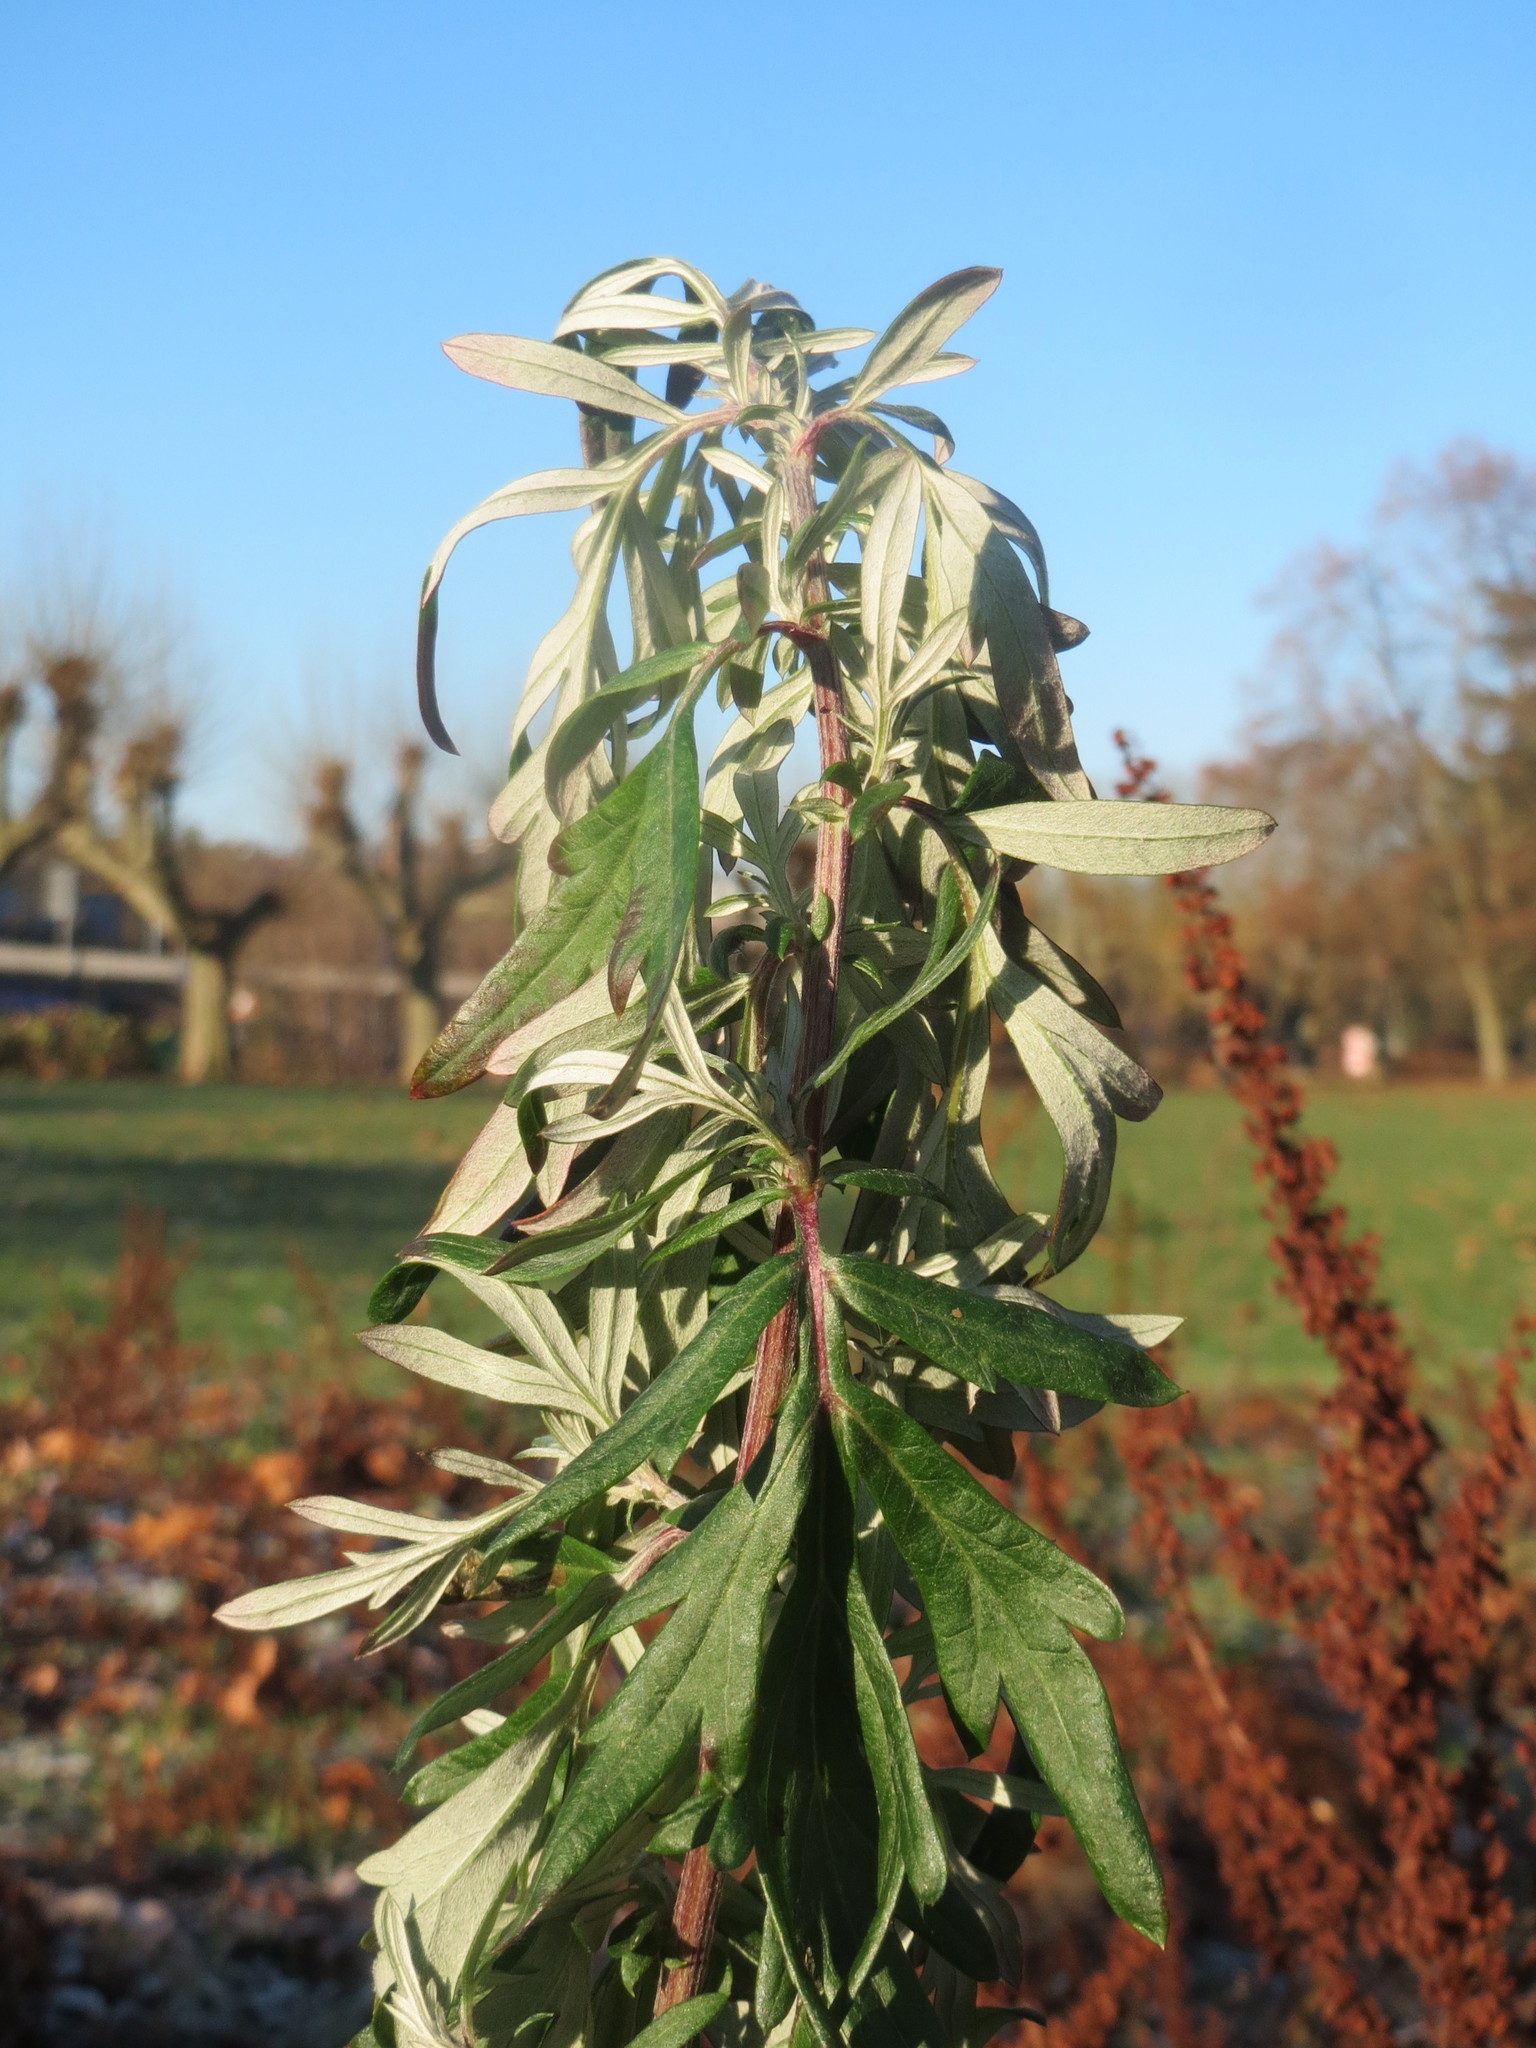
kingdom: Plantae
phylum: Tracheophyta
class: Magnoliopsida
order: Asterales
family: Asteraceae
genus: Artemisia
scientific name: Artemisia vulgaris
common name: Mugwort
